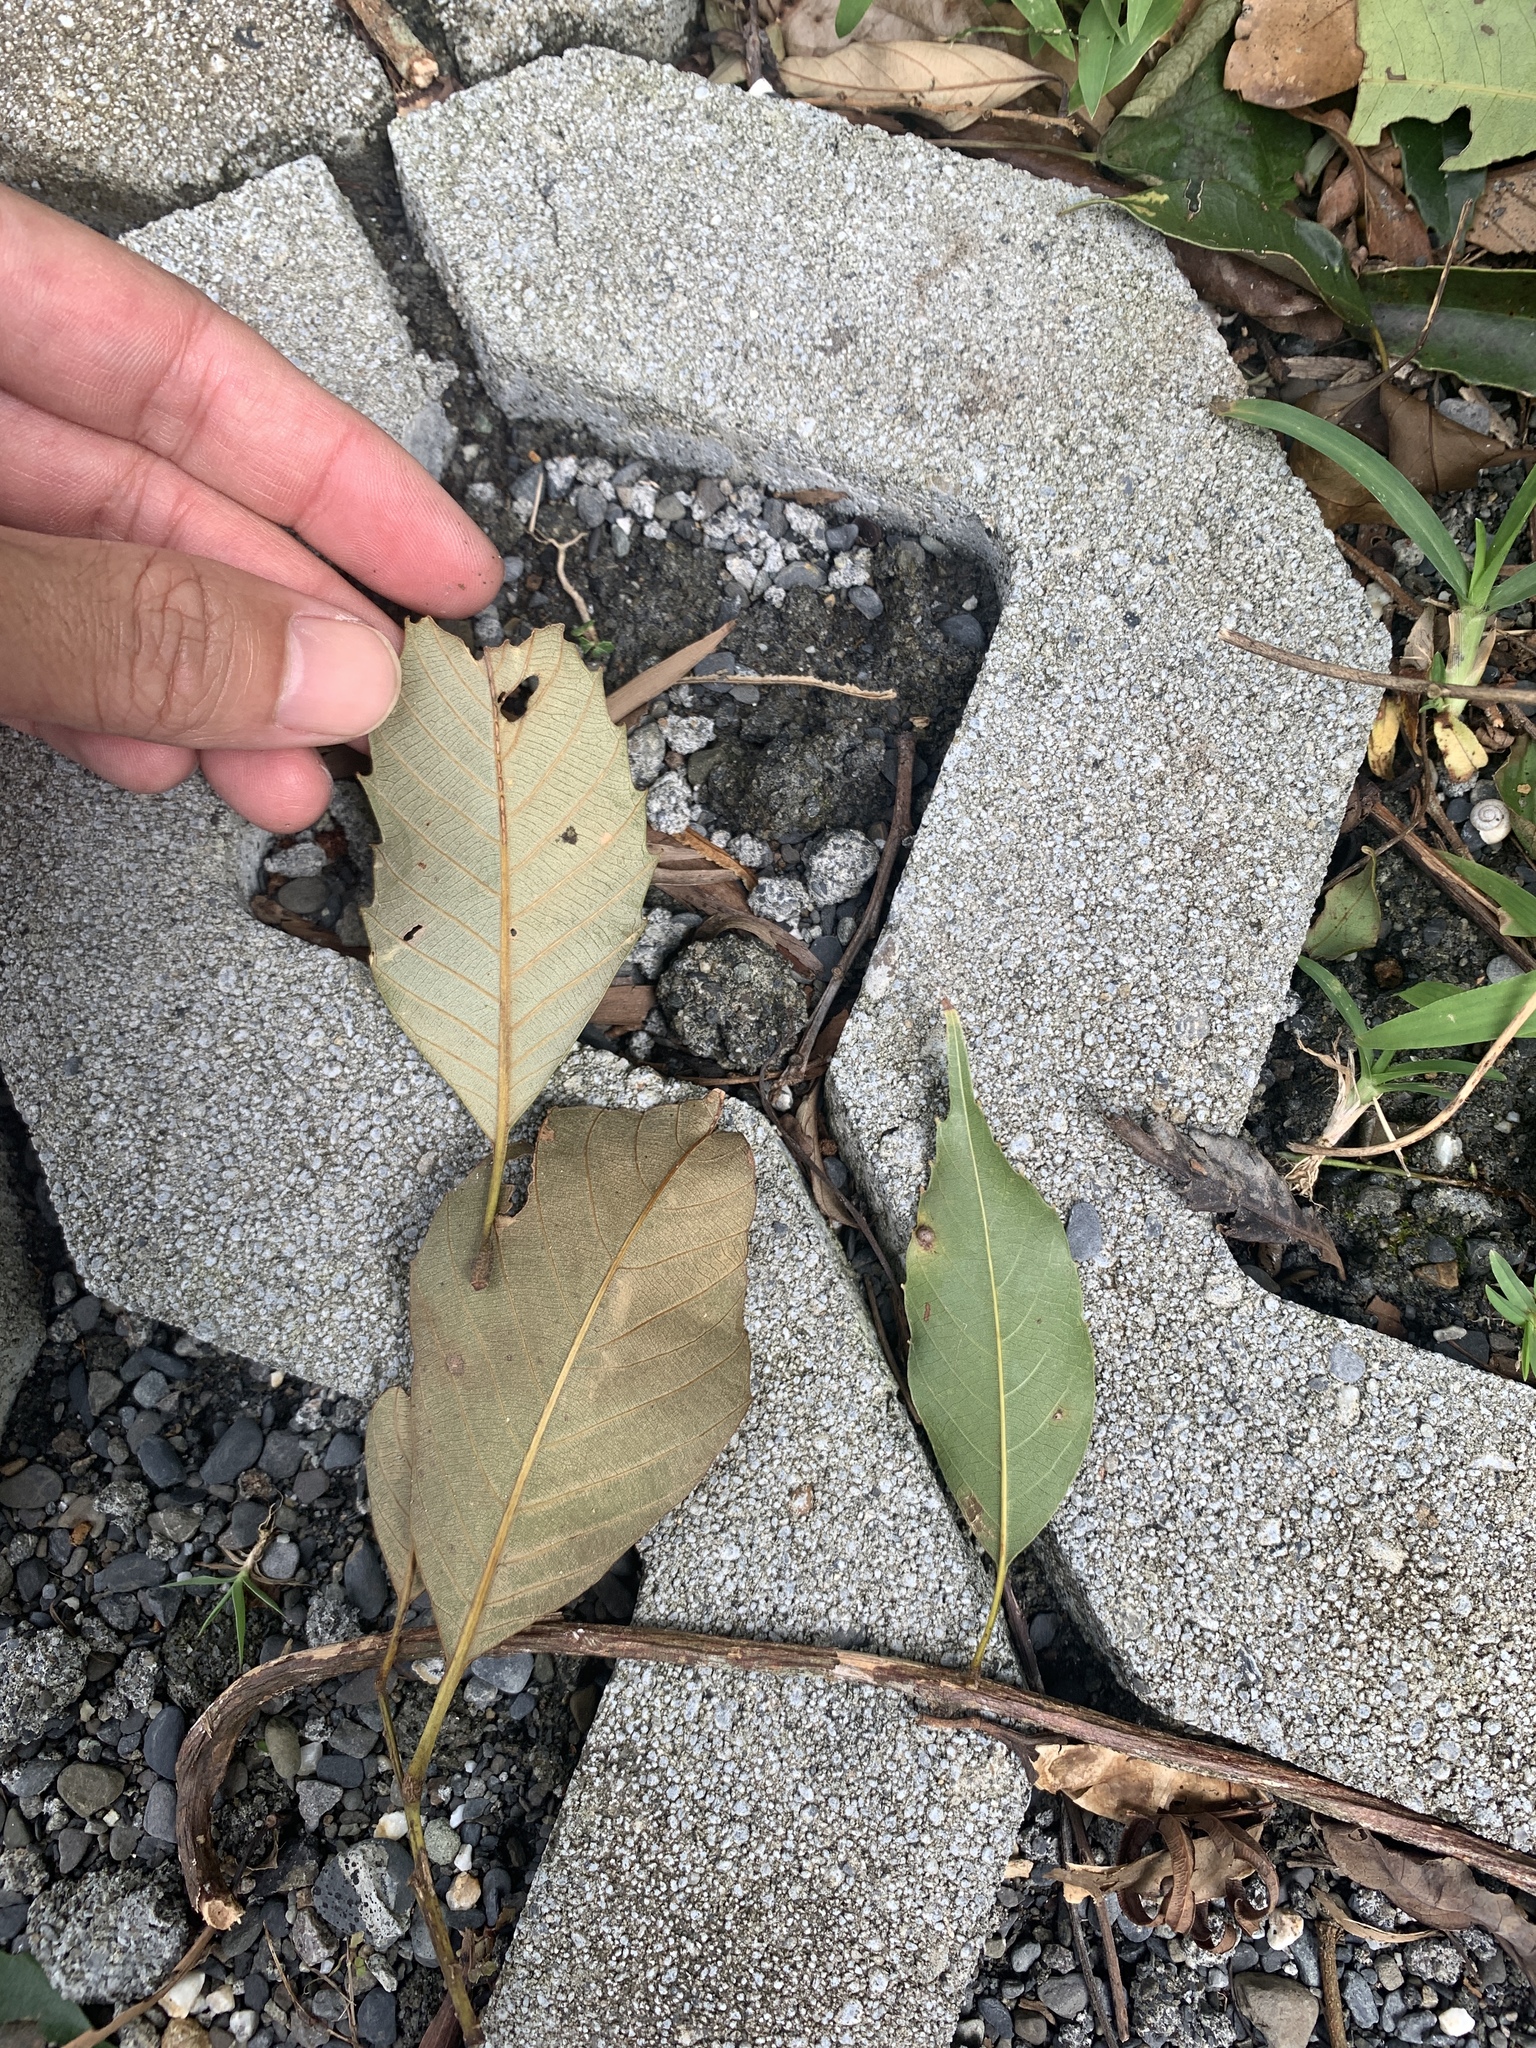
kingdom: Plantae
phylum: Tracheophyta
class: Magnoliopsida
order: Fagales
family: Fagaceae
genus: Castanopsis
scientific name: Castanopsis indica
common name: Indian-chestnut
